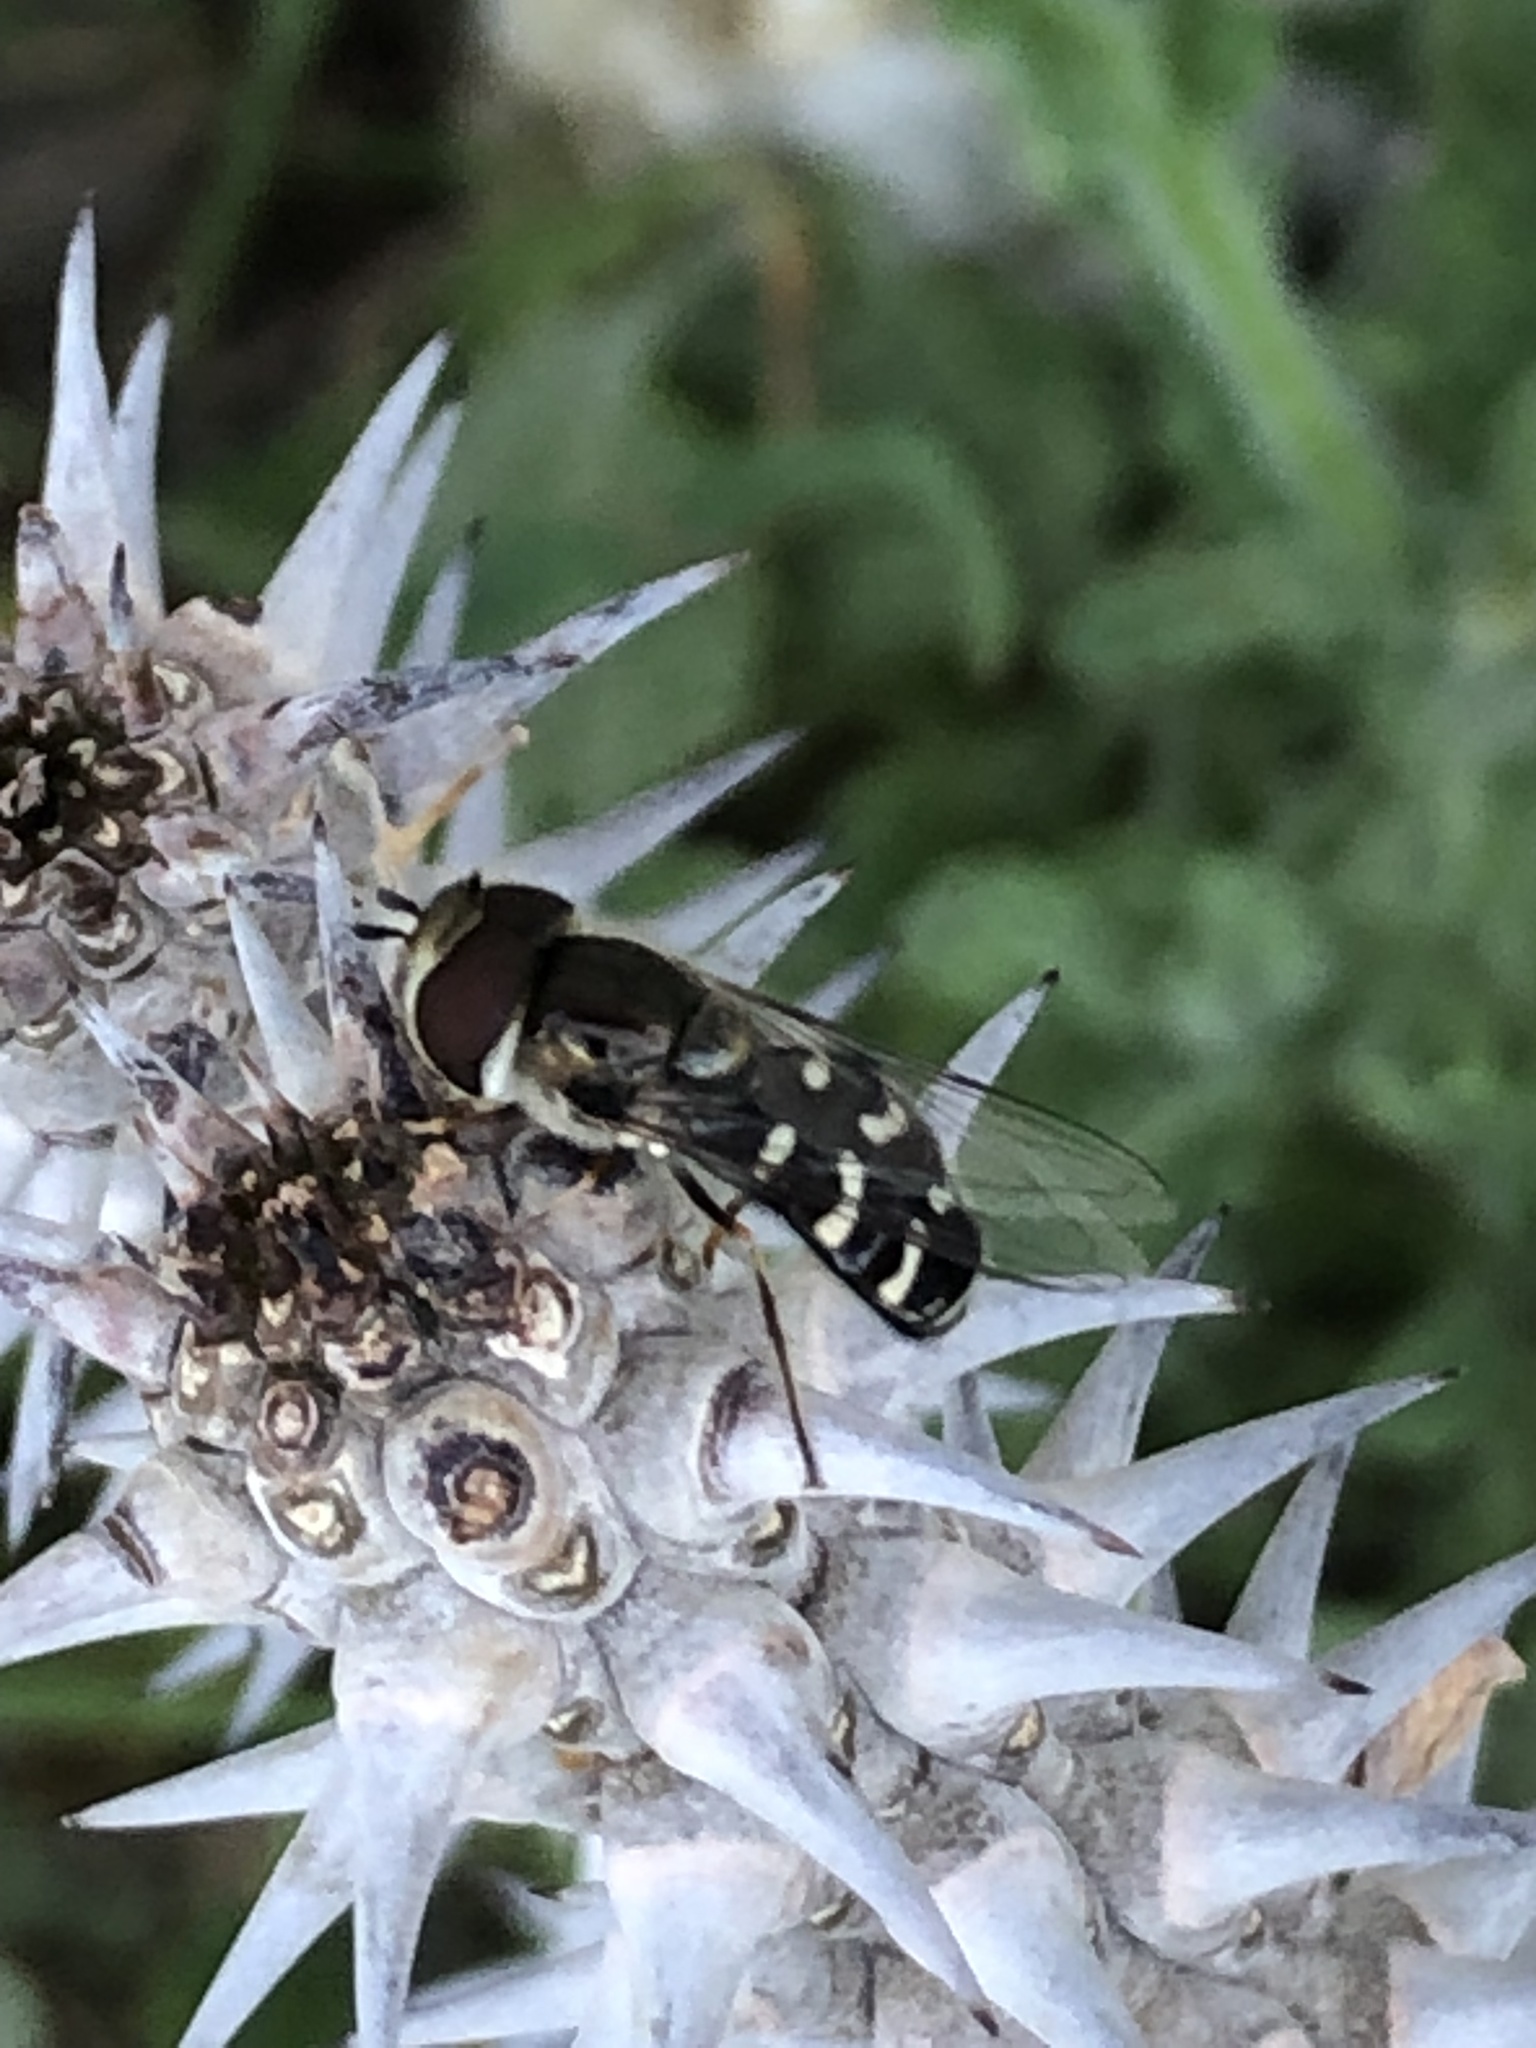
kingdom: Animalia
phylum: Arthropoda
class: Insecta
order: Diptera
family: Syrphidae
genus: Scaeva
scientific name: Scaeva affinis
